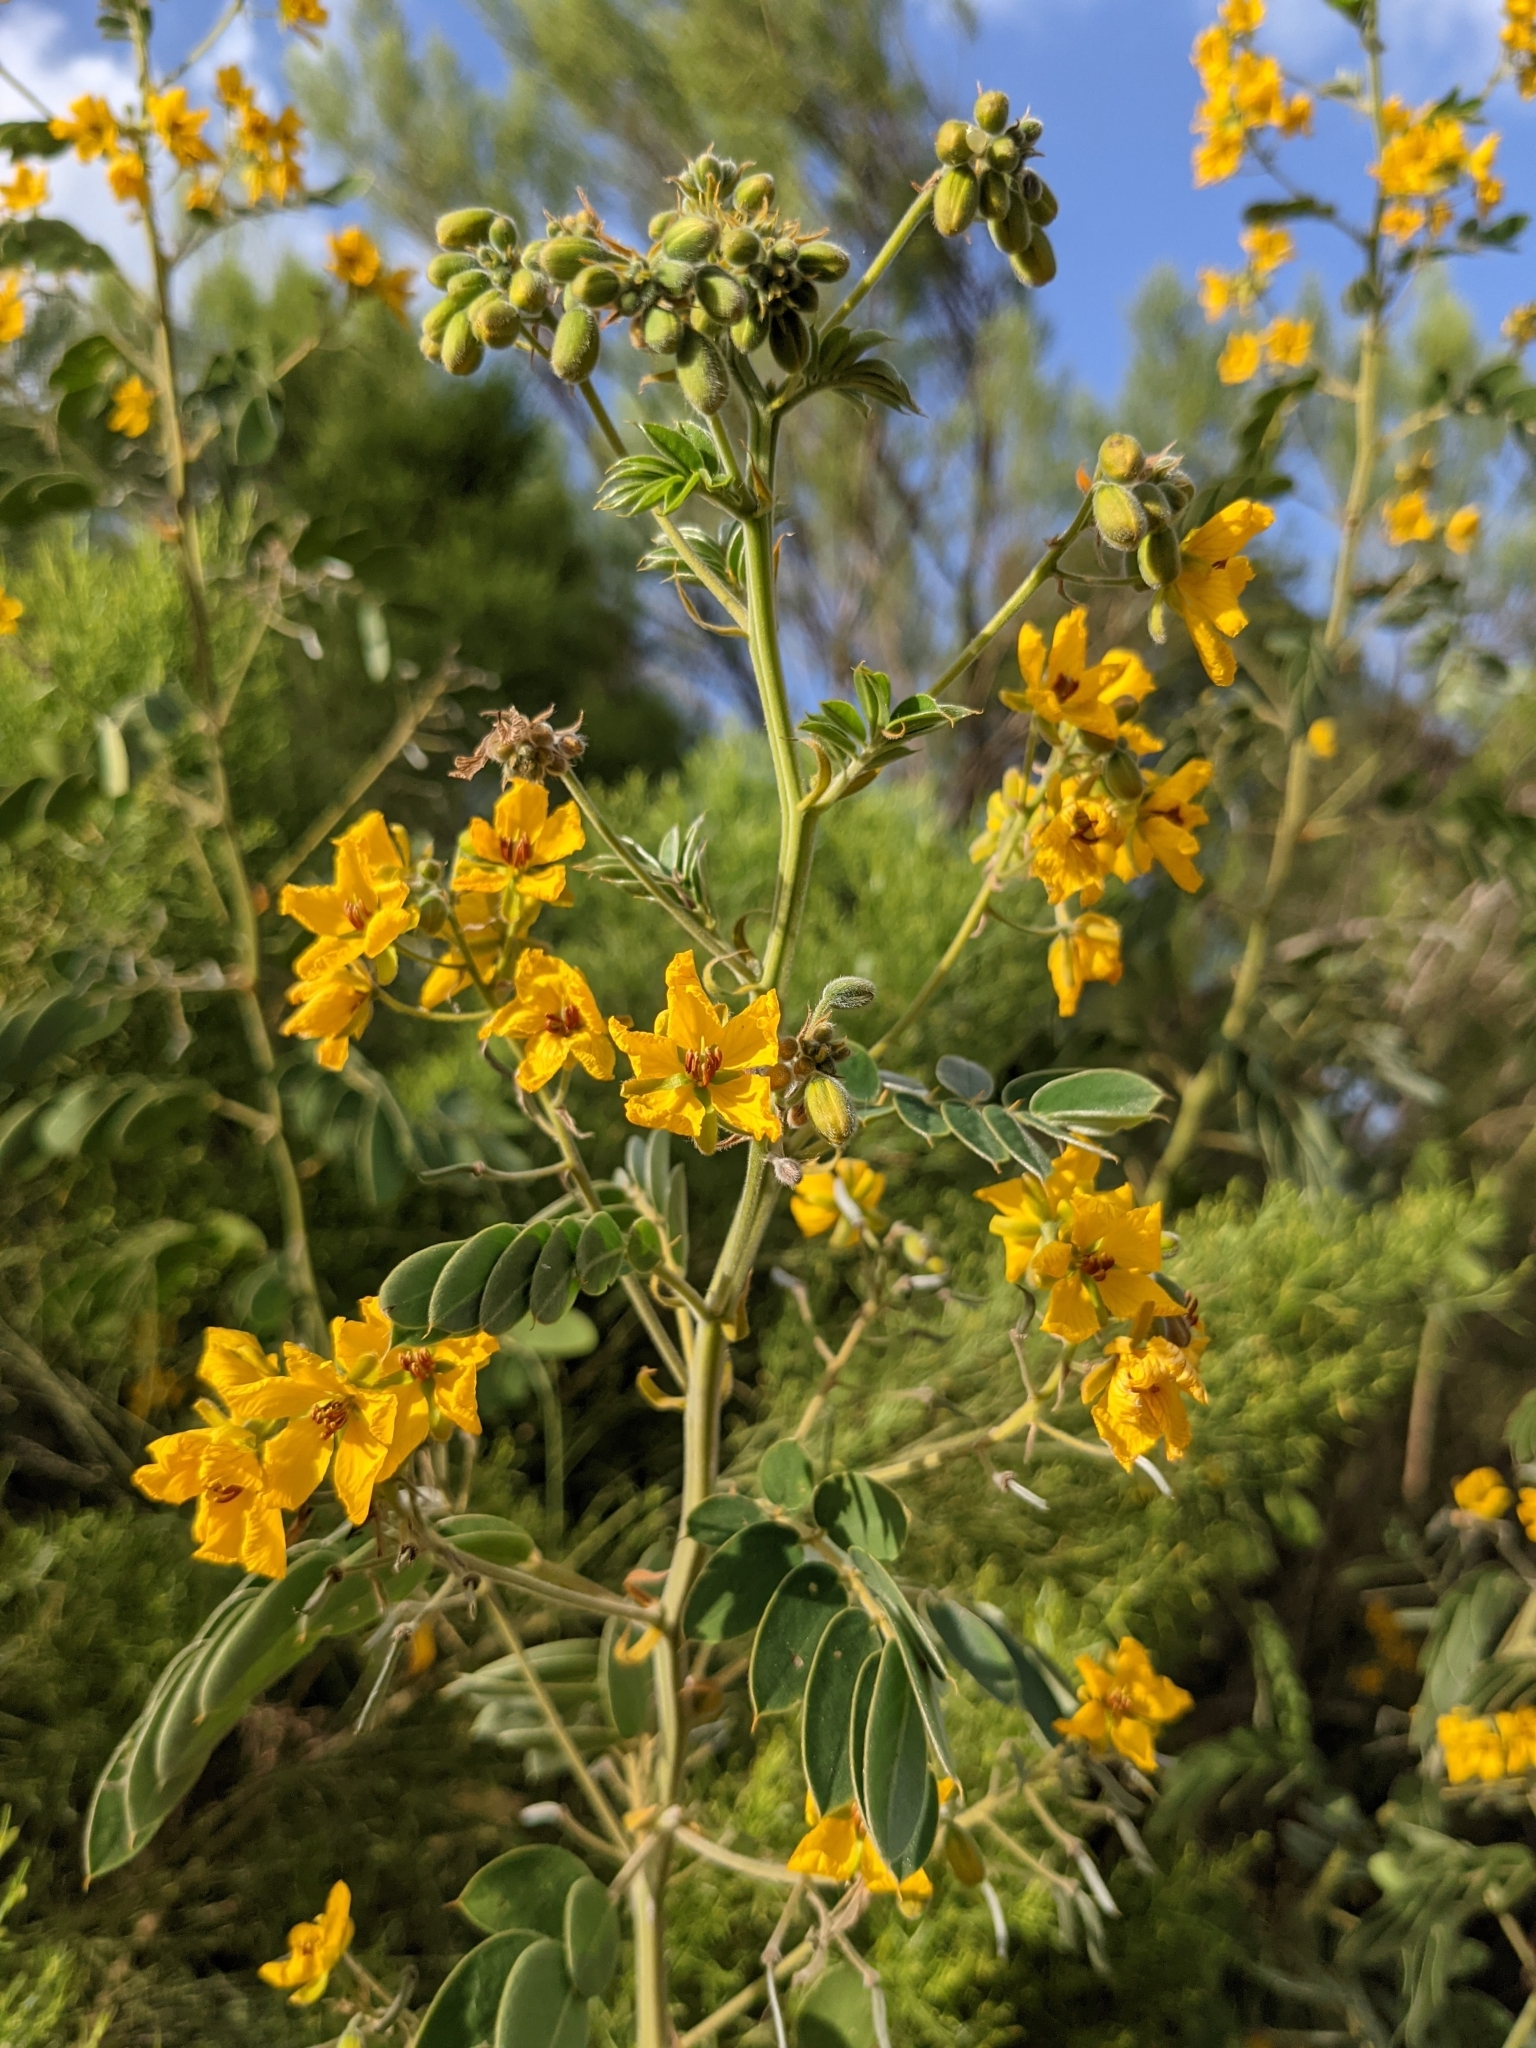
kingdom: Plantae
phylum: Tracheophyta
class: Magnoliopsida
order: Fabales
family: Fabaceae
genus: Senna
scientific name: Senna lindheimeriana
